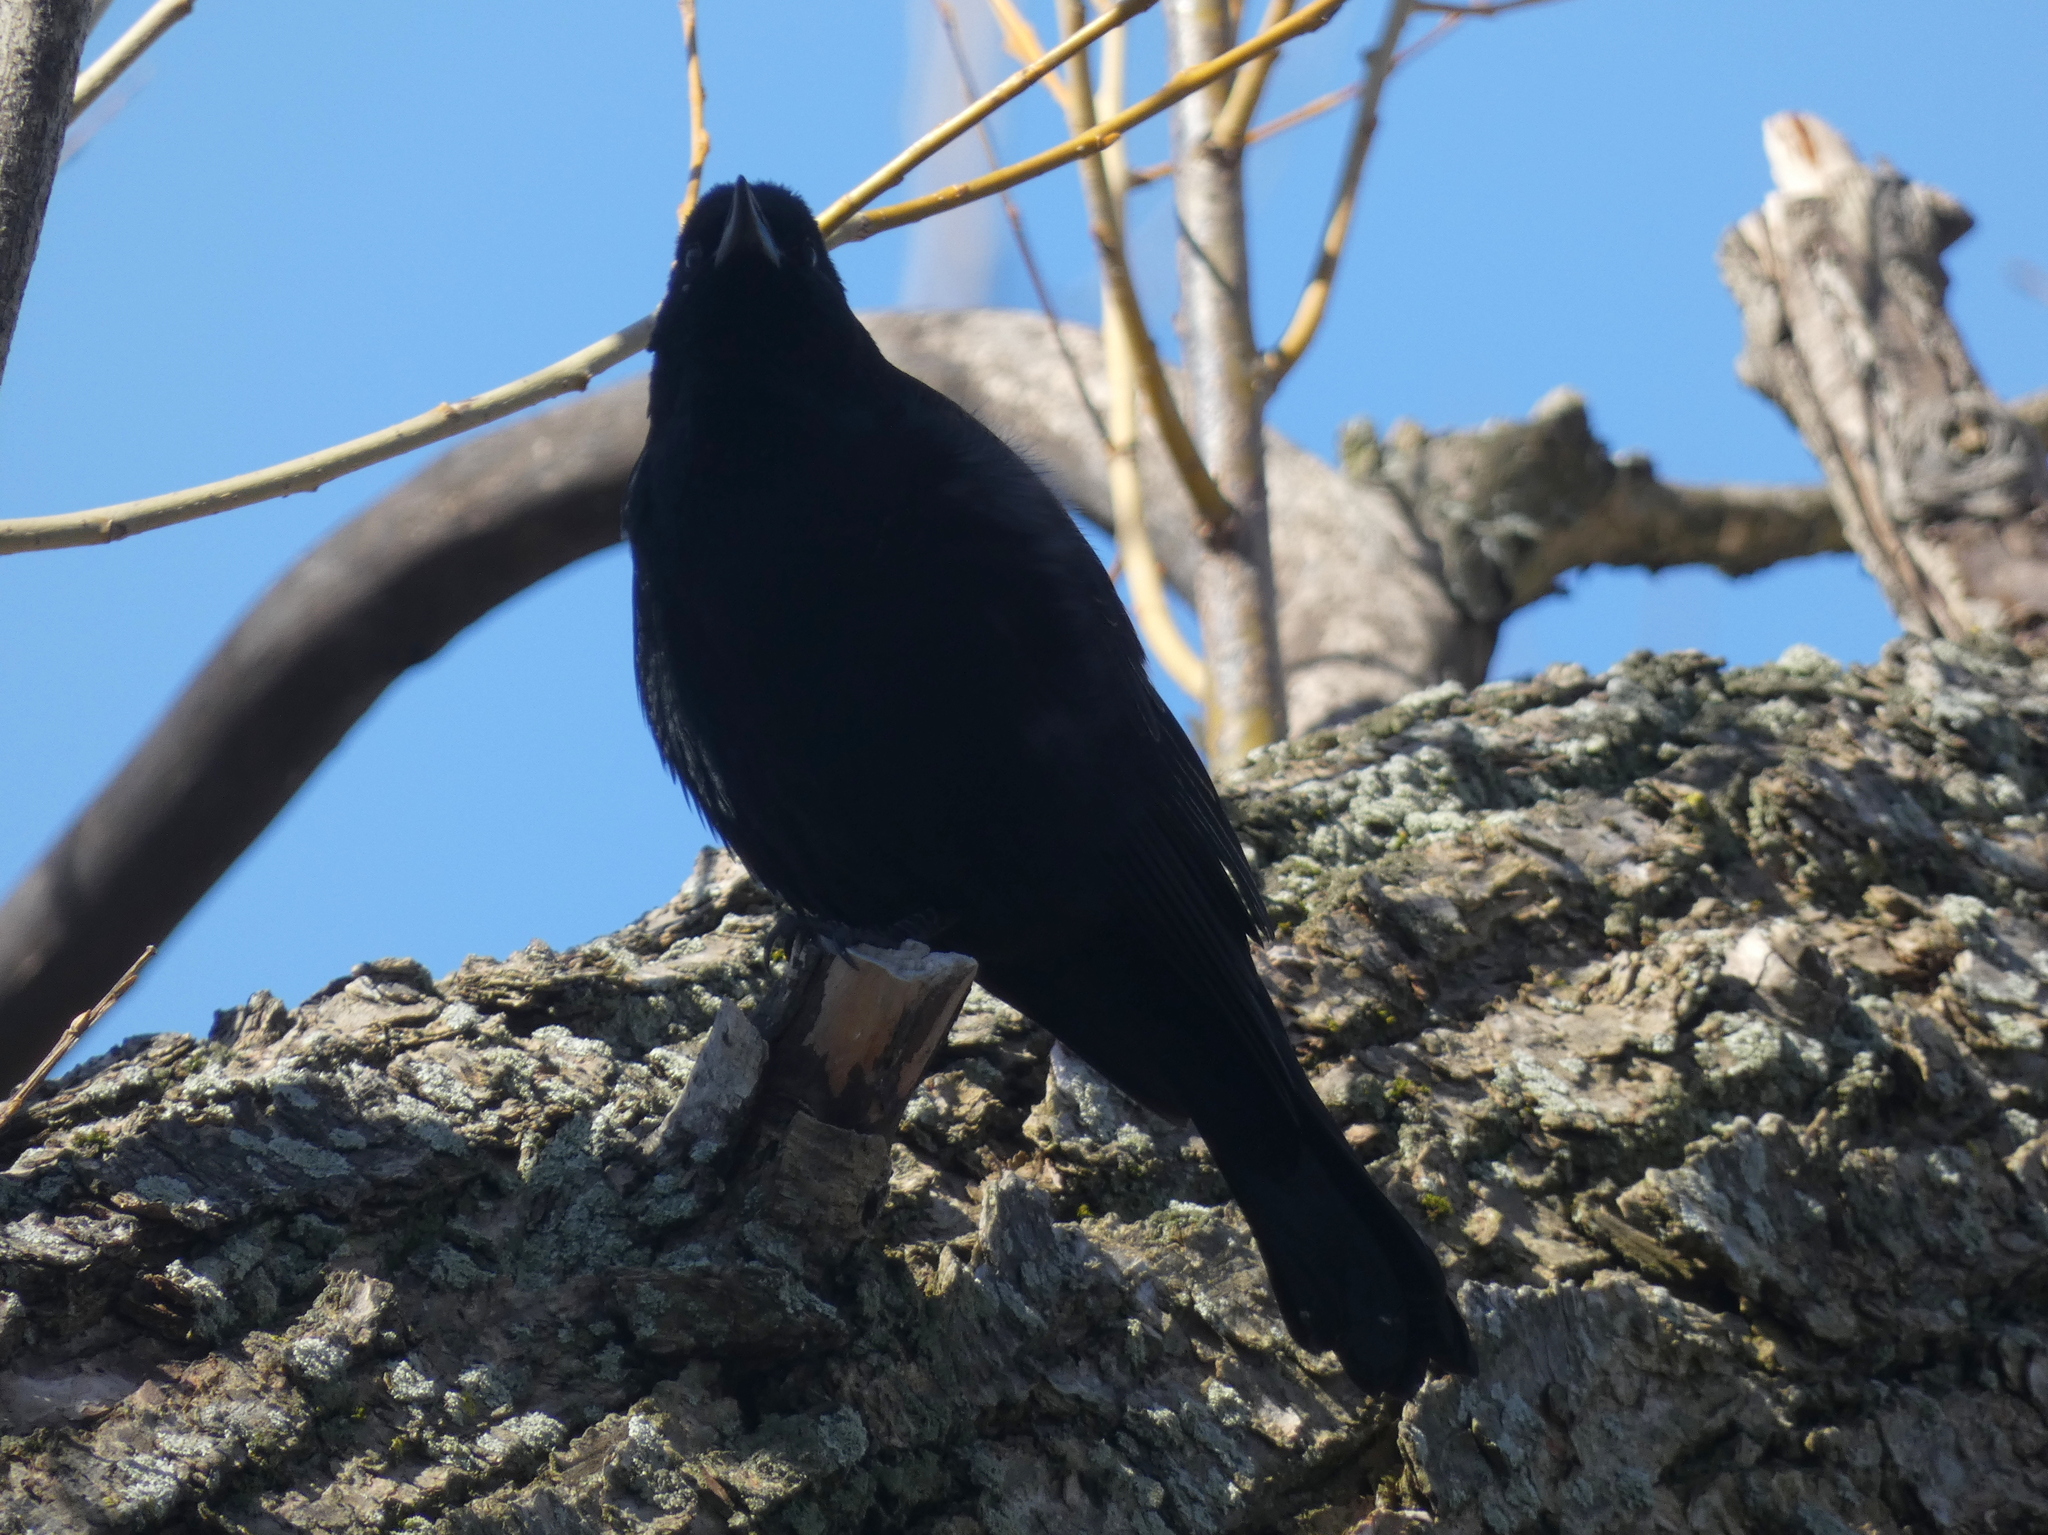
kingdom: Animalia
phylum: Chordata
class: Aves
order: Passeriformes
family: Icteridae
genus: Agelaius
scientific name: Agelaius phoeniceus
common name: Red-winged blackbird
